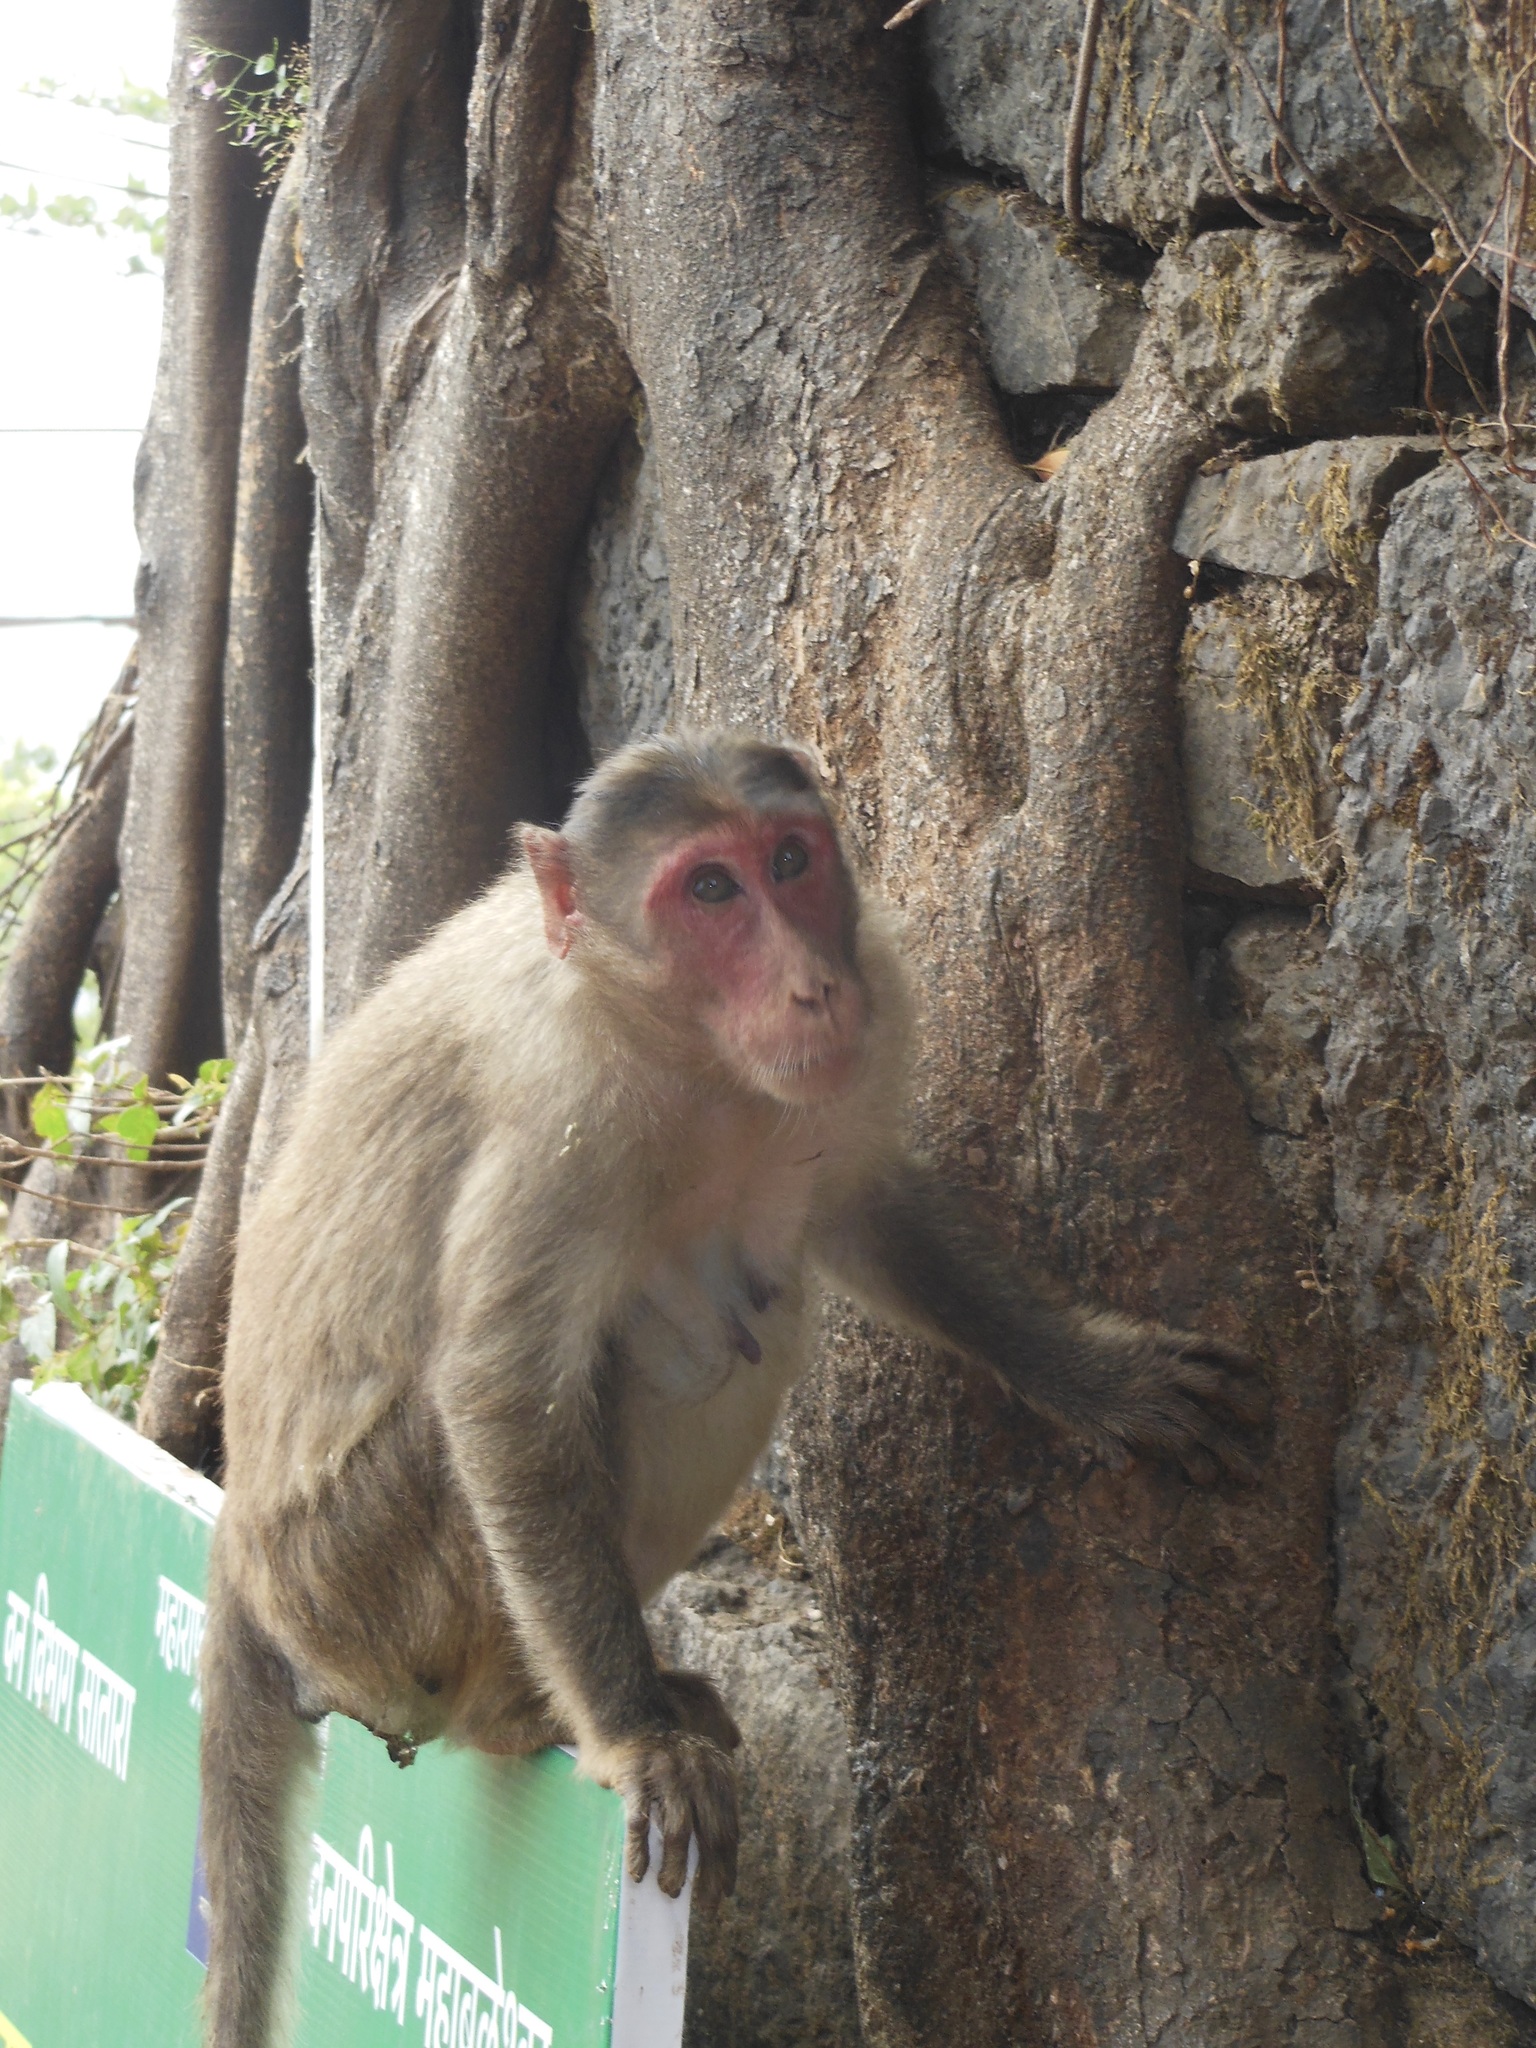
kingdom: Animalia
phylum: Chordata
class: Mammalia
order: Primates
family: Cercopithecidae
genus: Macaca
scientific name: Macaca radiata
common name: Bonnet macaque
